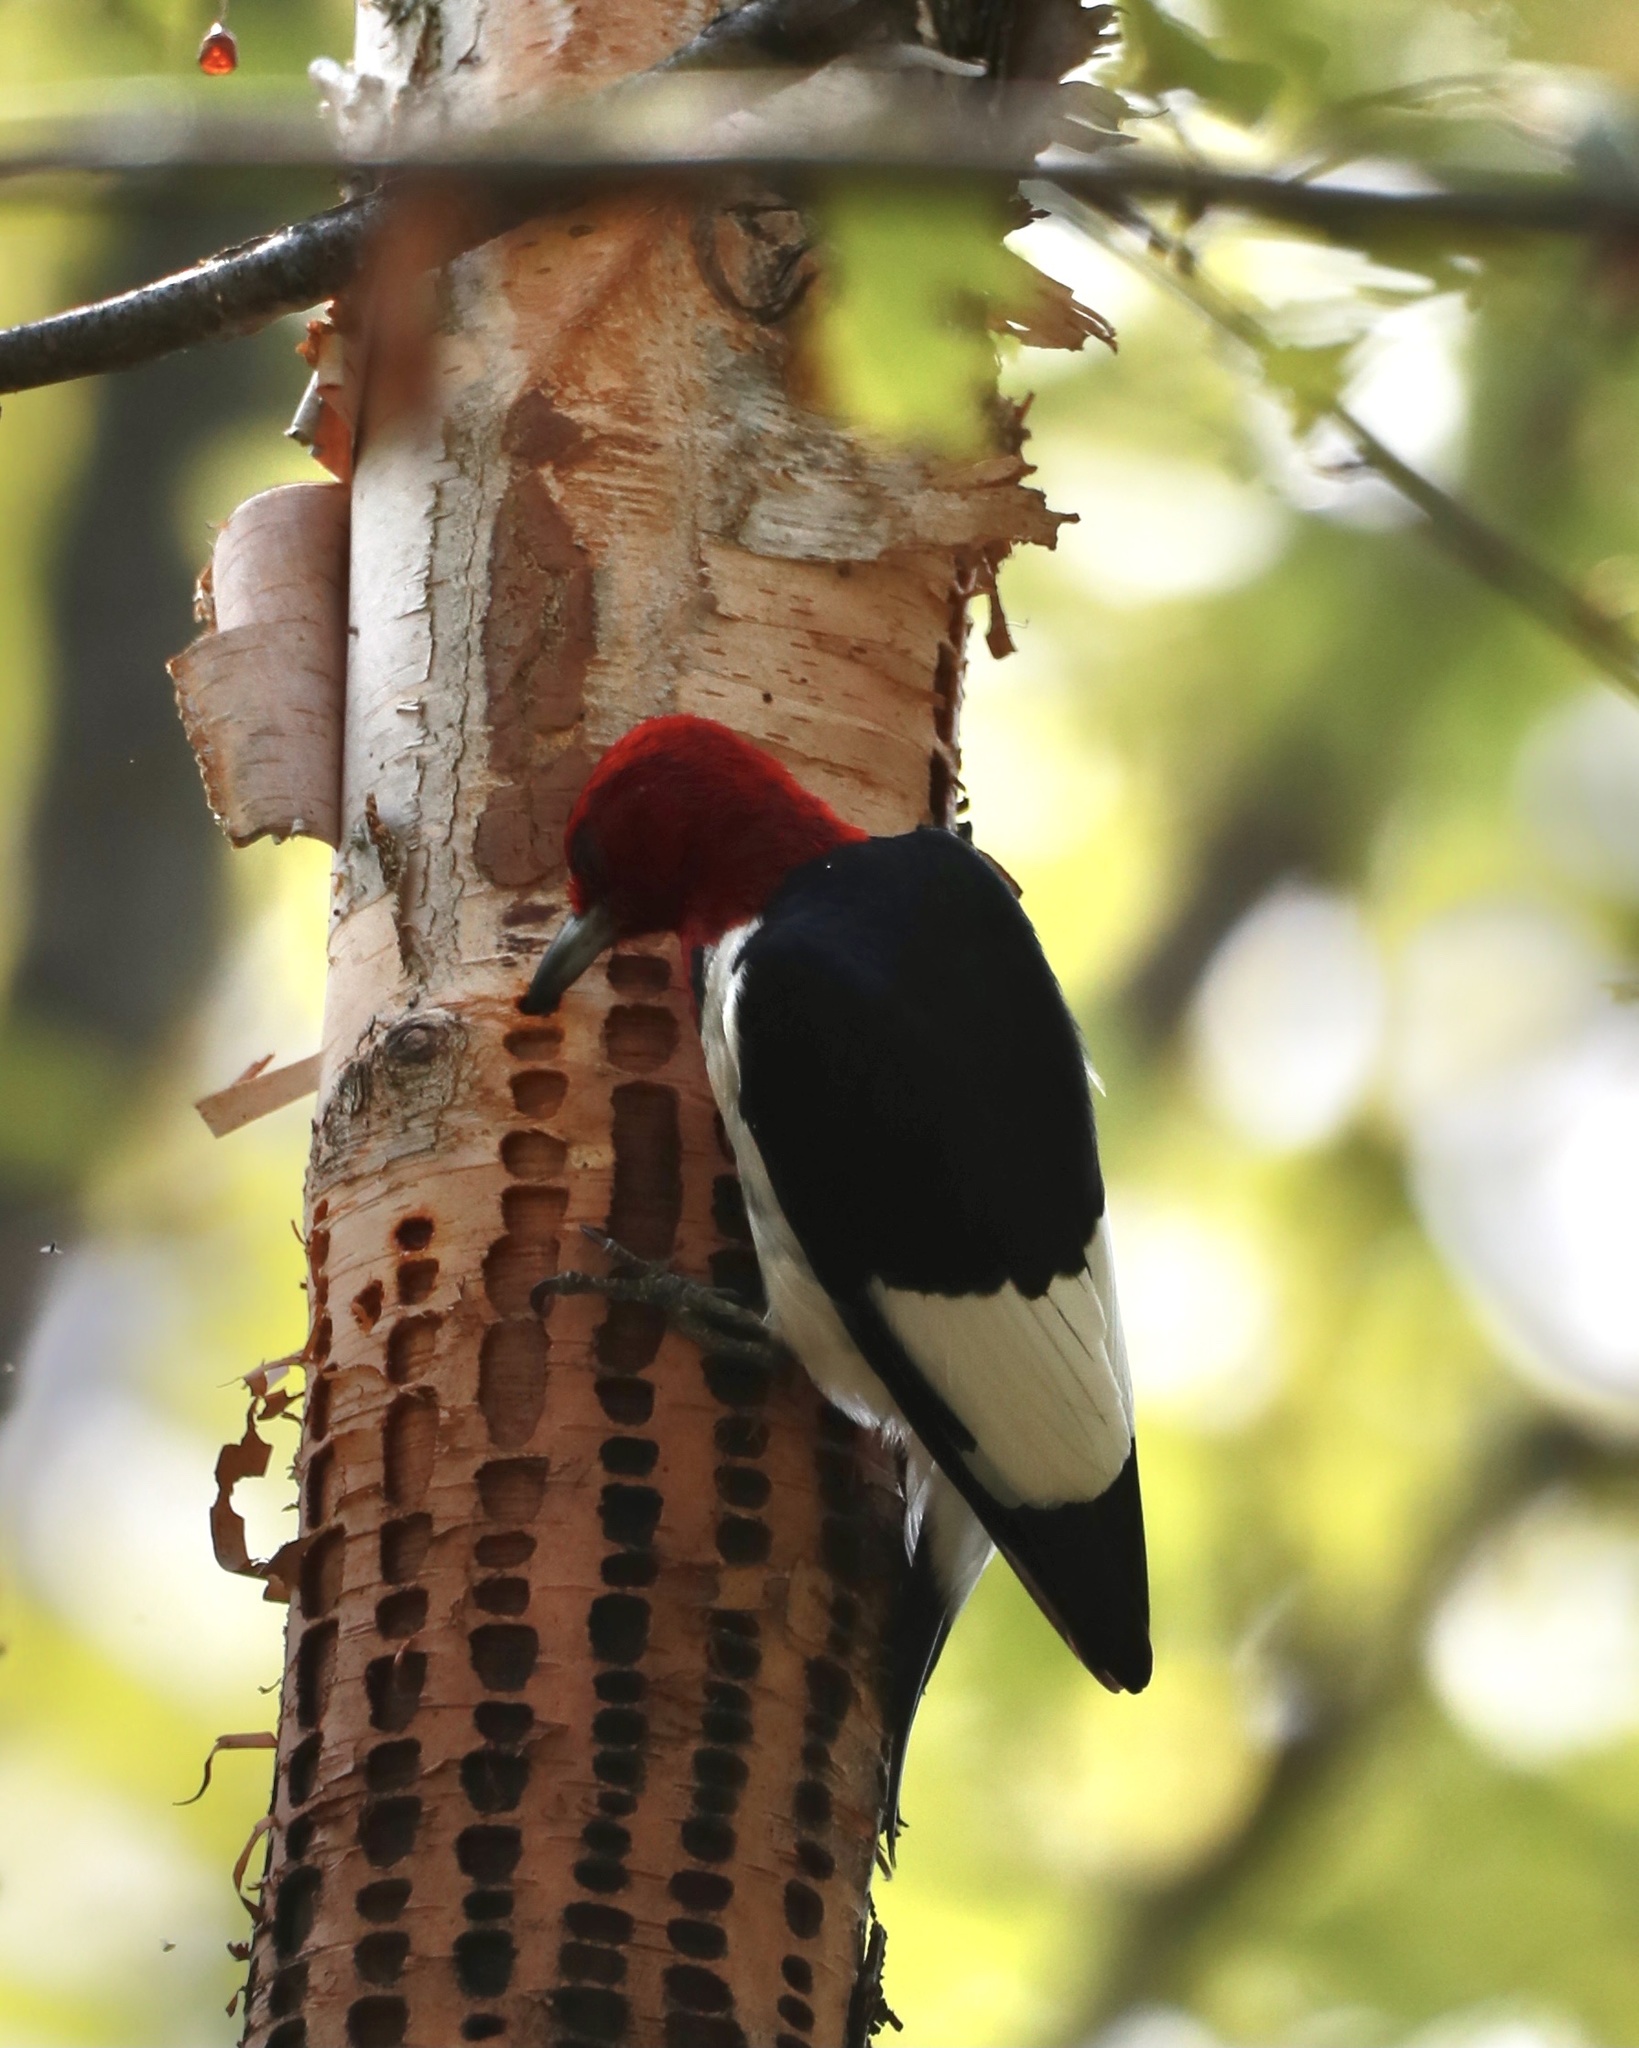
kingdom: Animalia
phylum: Chordata
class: Aves
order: Piciformes
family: Picidae
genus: Melanerpes
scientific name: Melanerpes erythrocephalus
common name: Red-headed woodpecker
